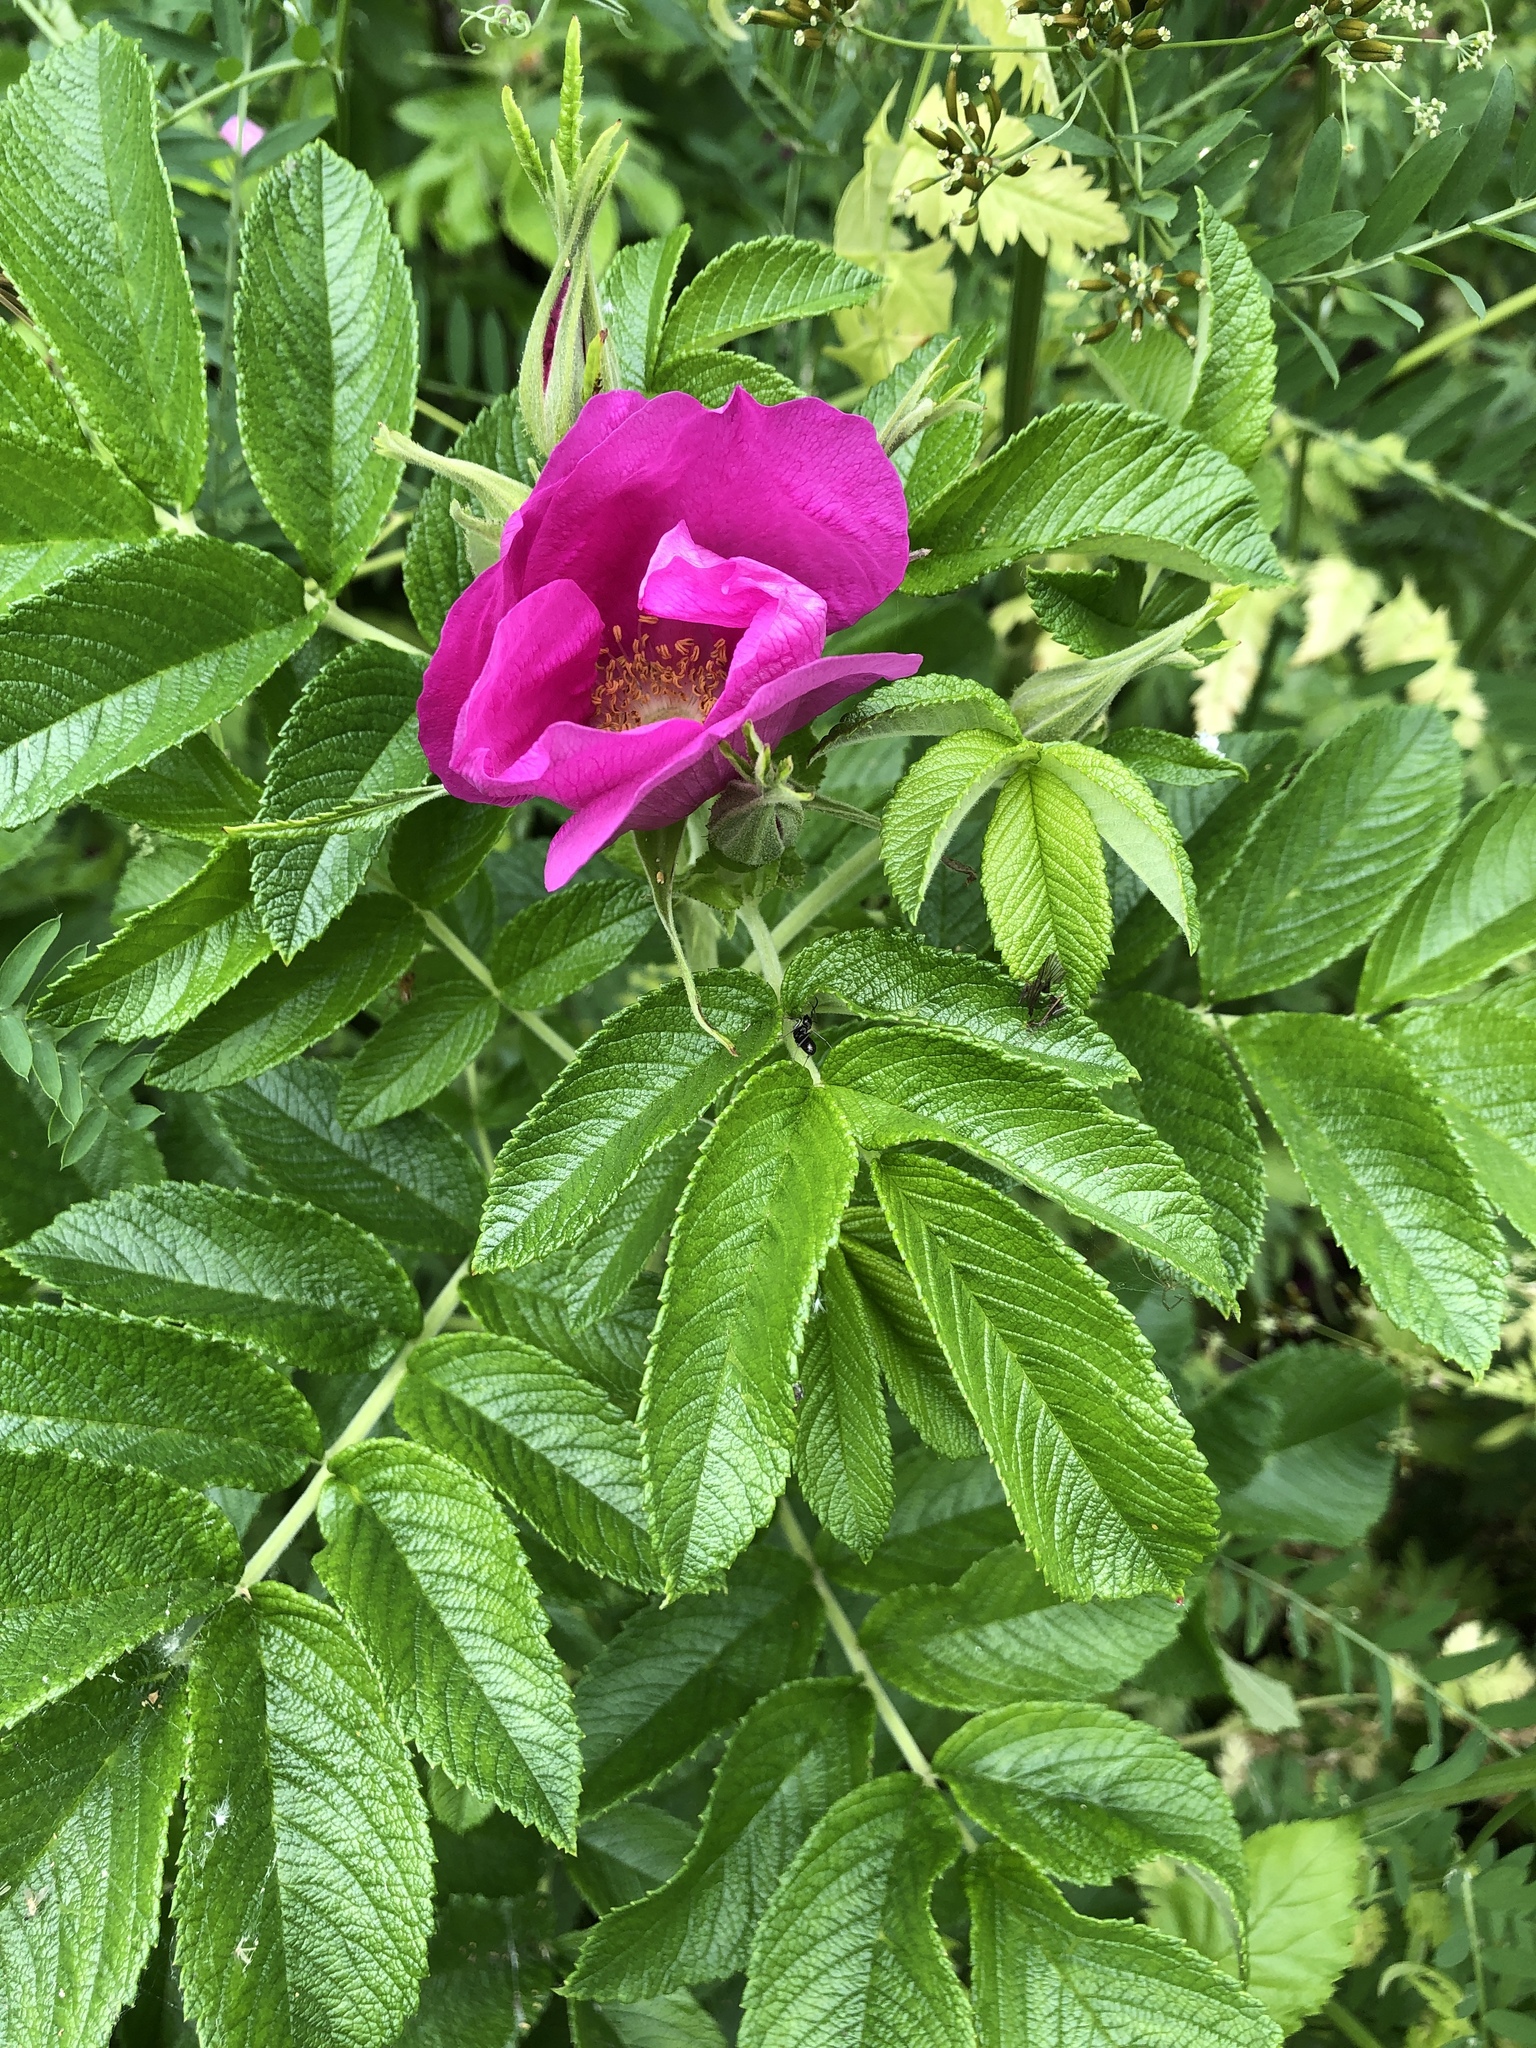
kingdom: Plantae
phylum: Tracheophyta
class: Magnoliopsida
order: Rosales
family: Rosaceae
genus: Rosa
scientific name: Rosa rugosa
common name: Japanese rose
